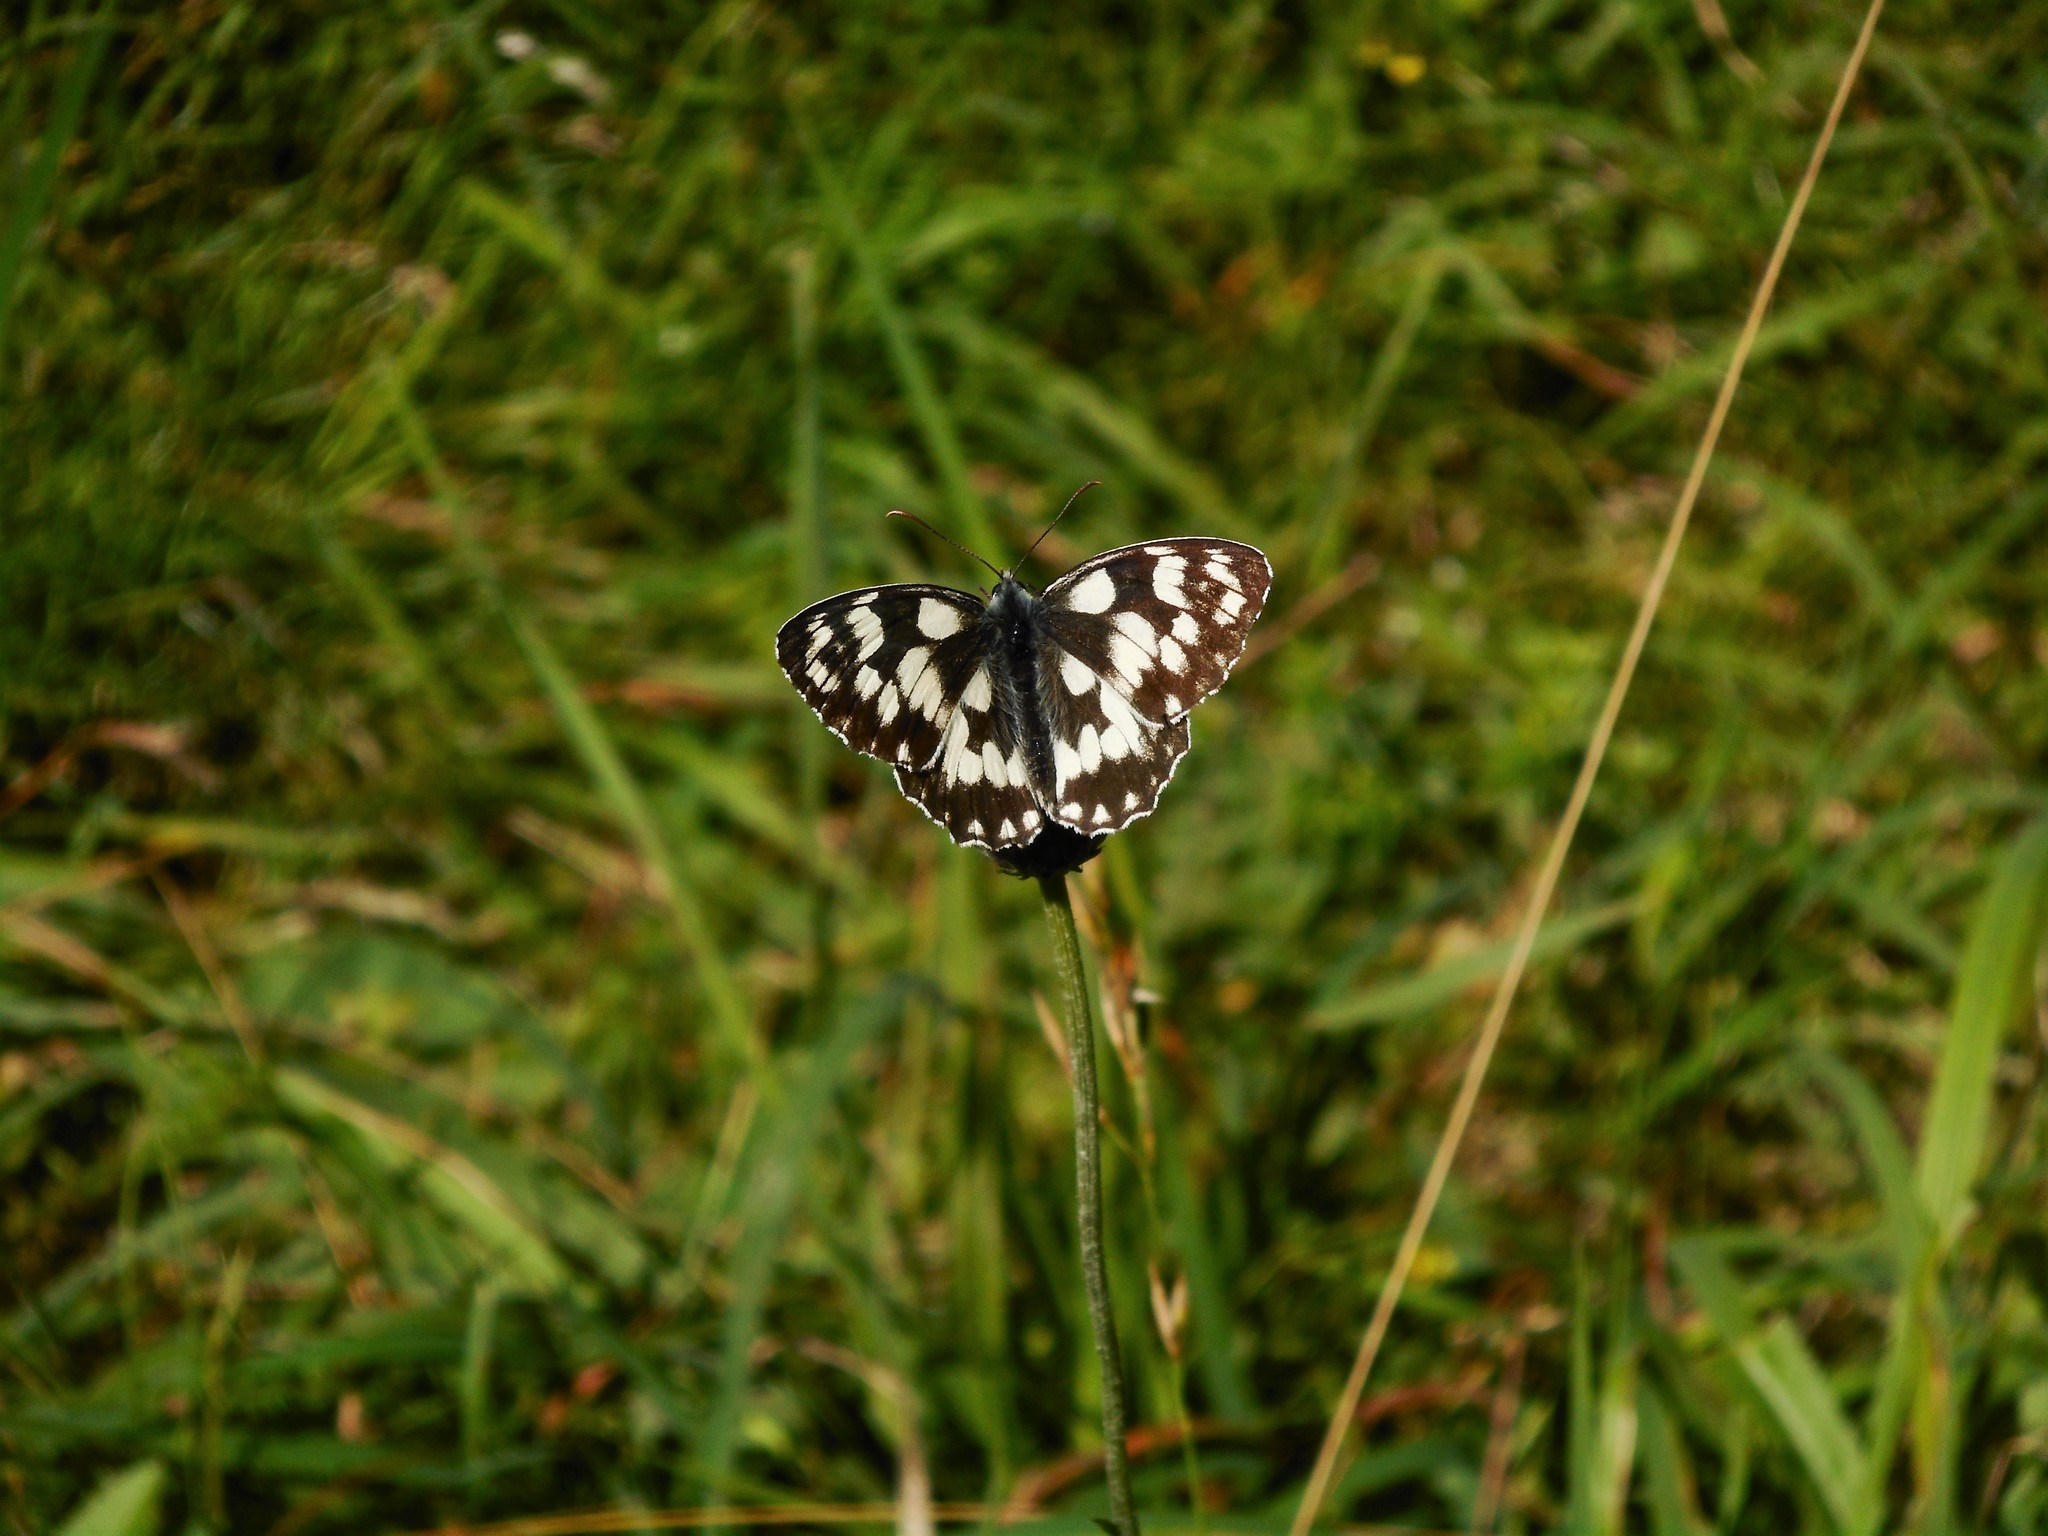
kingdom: Animalia
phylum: Arthropoda
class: Insecta
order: Lepidoptera
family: Nymphalidae
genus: Melanargia
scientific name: Melanargia galathea
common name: Marbled white
